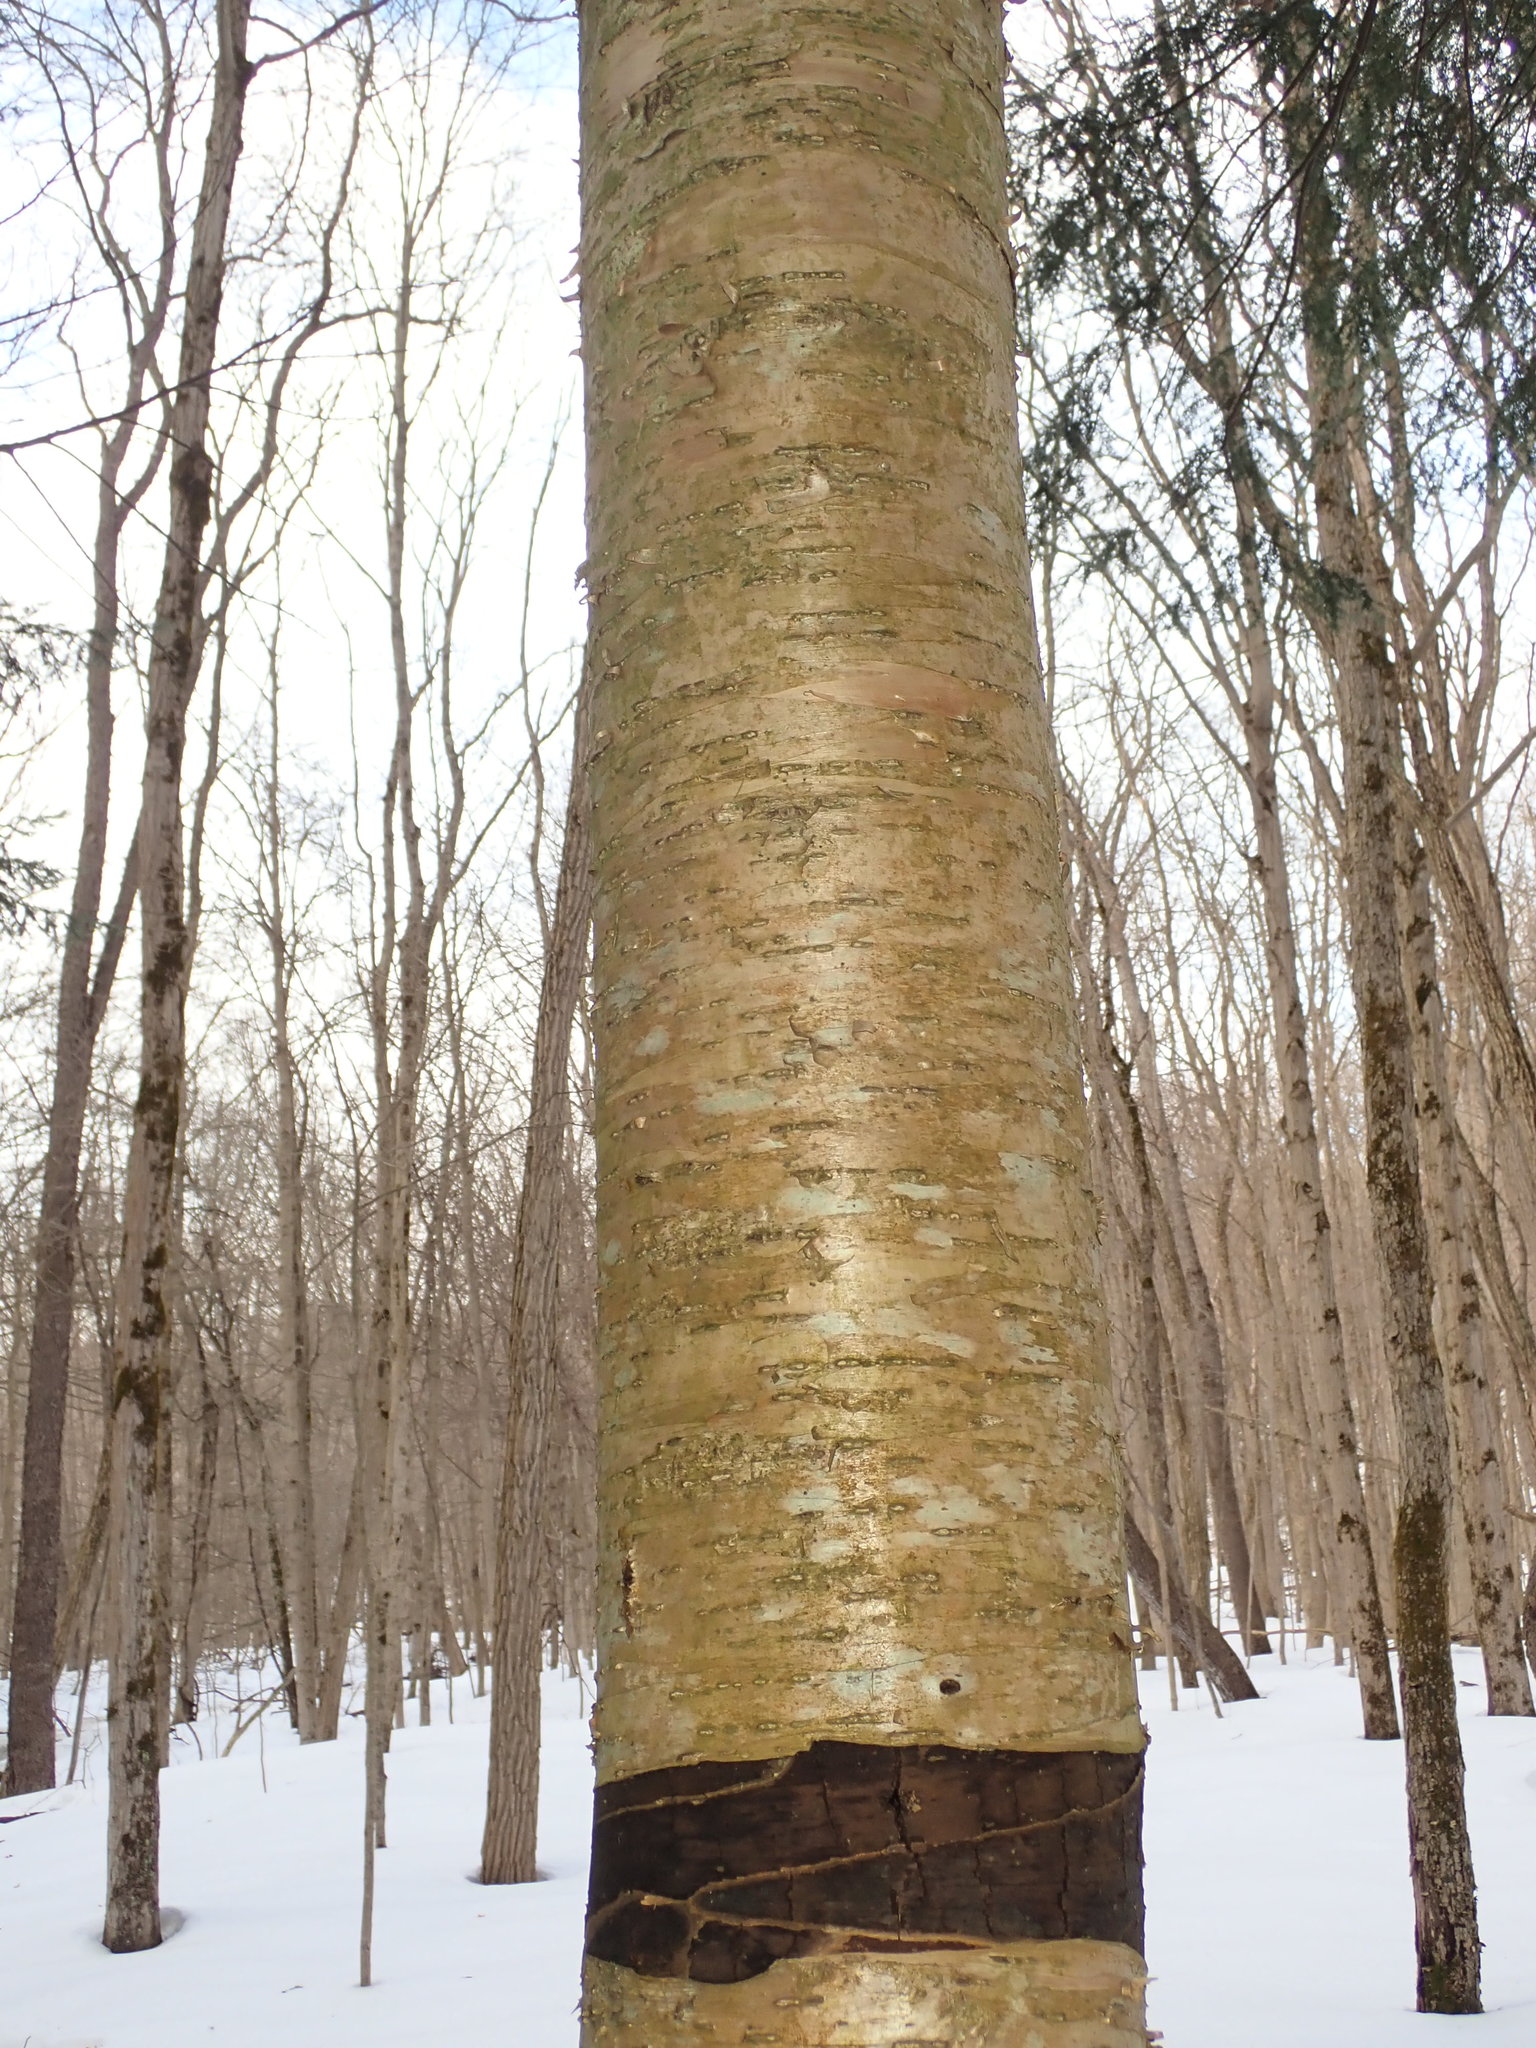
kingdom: Plantae
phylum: Tracheophyta
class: Magnoliopsida
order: Fagales
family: Betulaceae
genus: Betula
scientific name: Betula alleghaniensis
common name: Yellow birch
